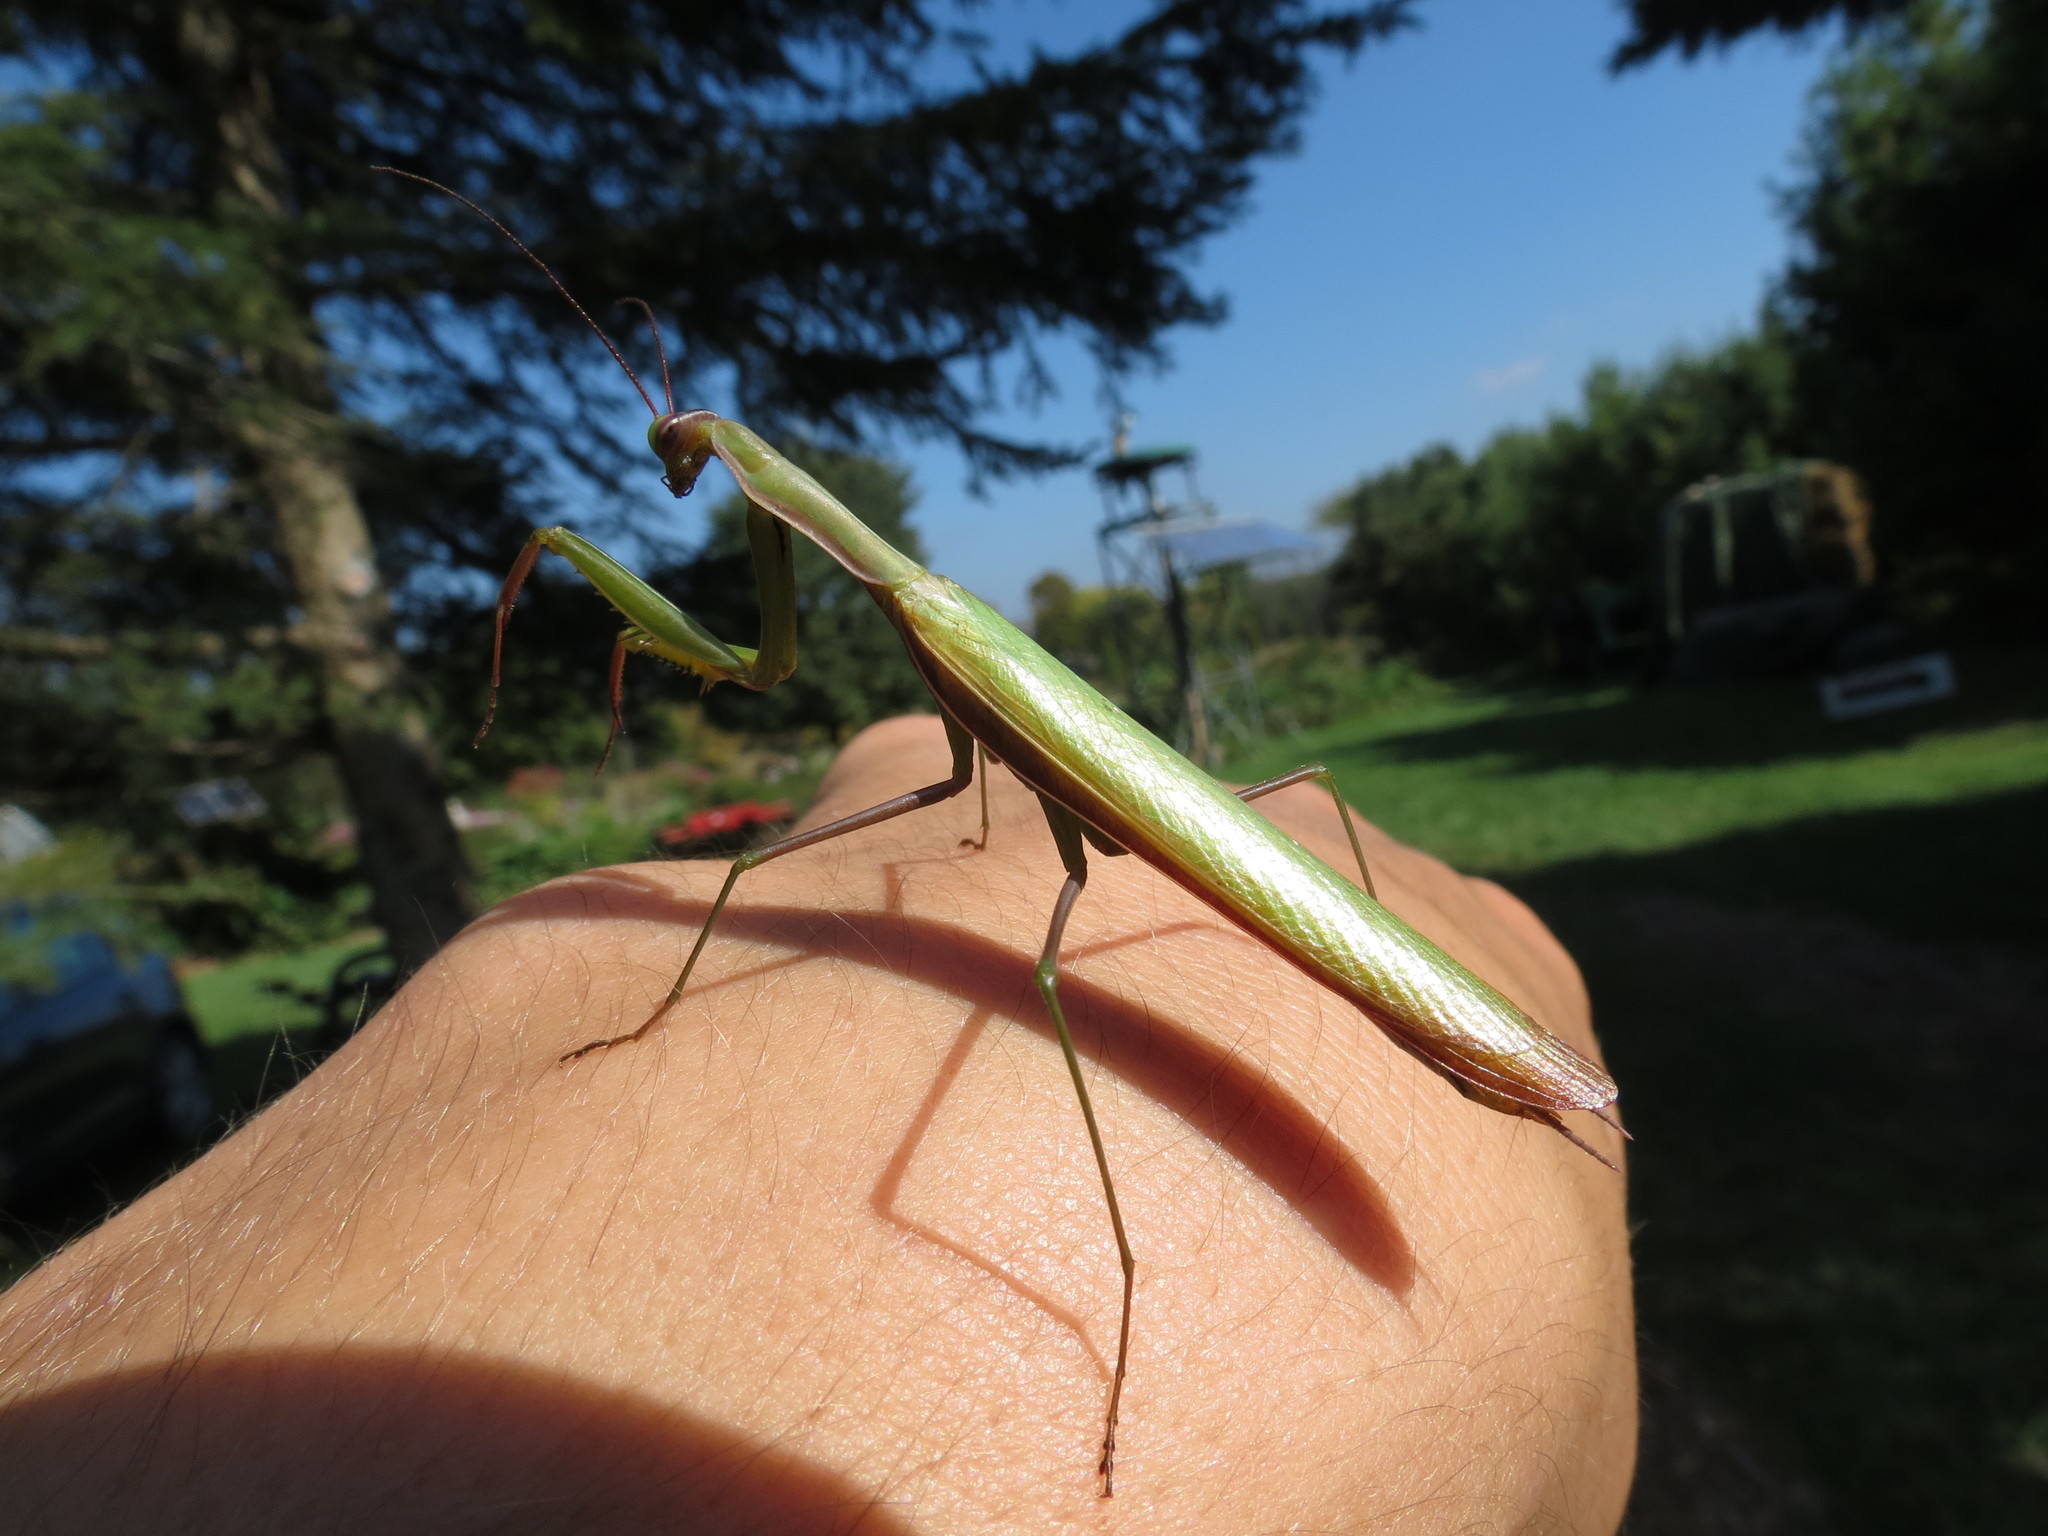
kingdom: Animalia
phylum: Arthropoda
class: Insecta
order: Mantodea
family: Mantidae
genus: Mantis
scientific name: Mantis religiosa
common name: Praying mantis
